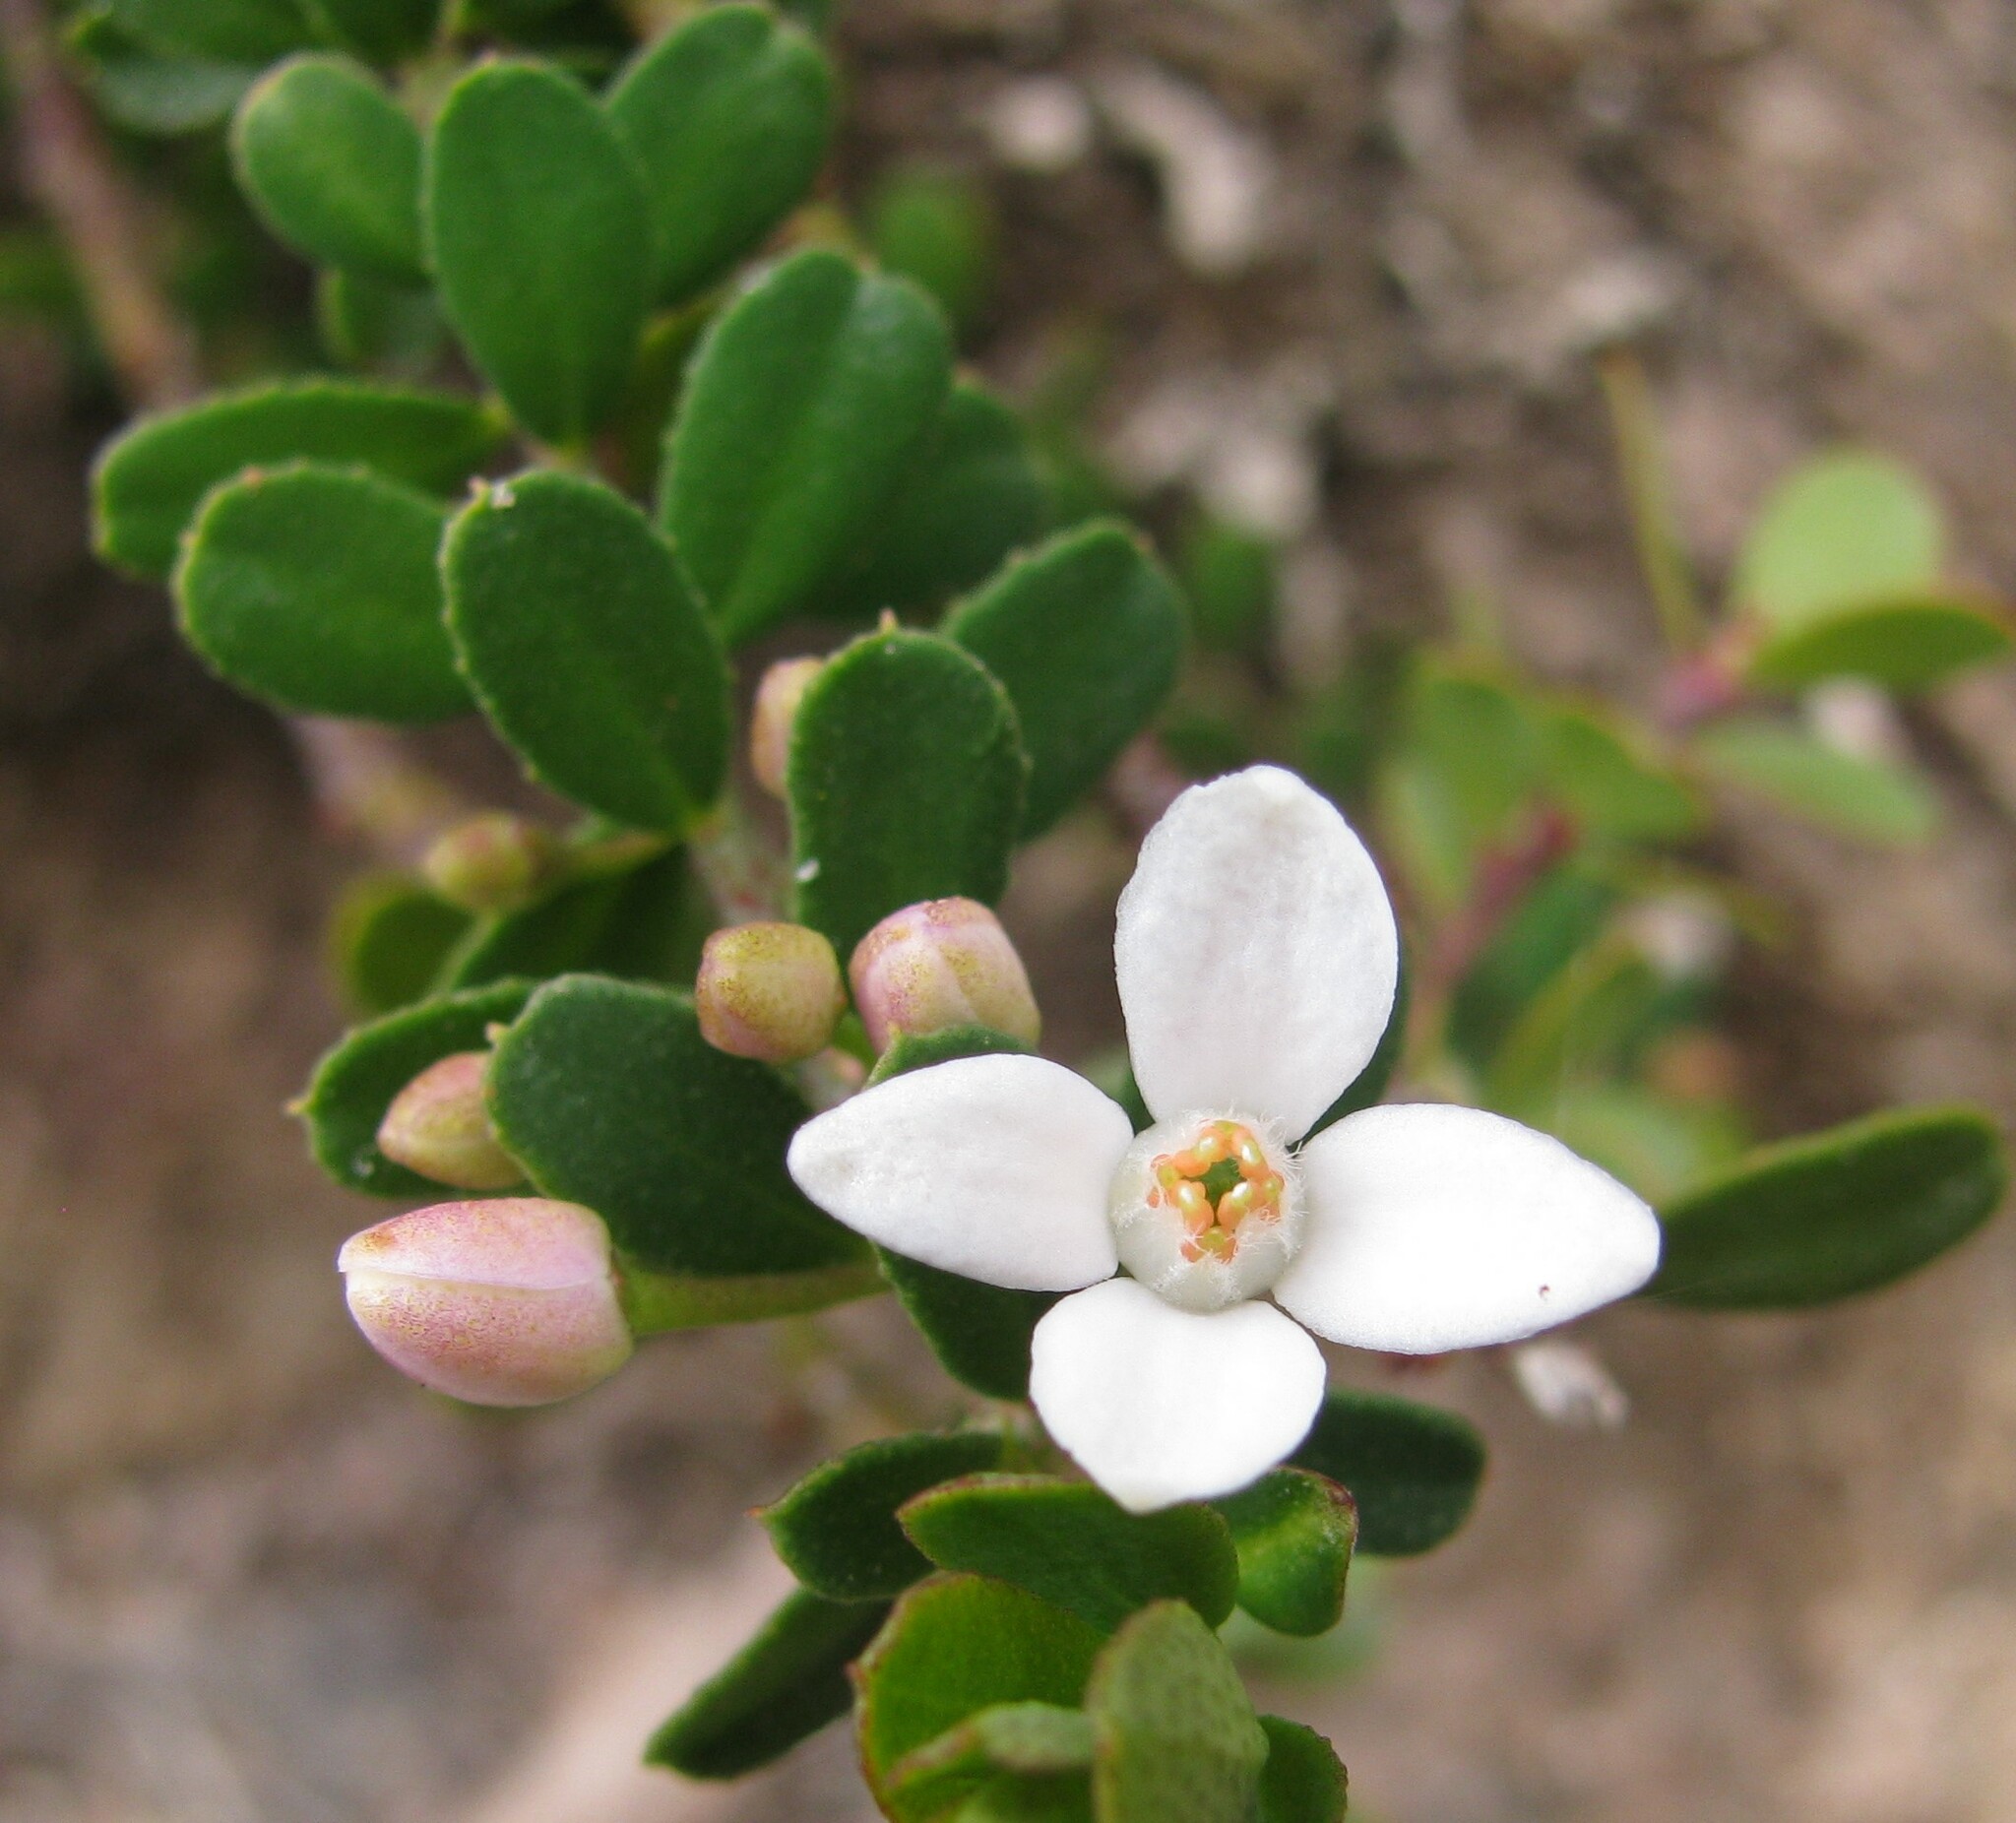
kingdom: Plantae
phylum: Tracheophyta
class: Magnoliopsida
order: Sapindales
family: Rutaceae
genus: Philotheca
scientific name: Philotheca virgata
